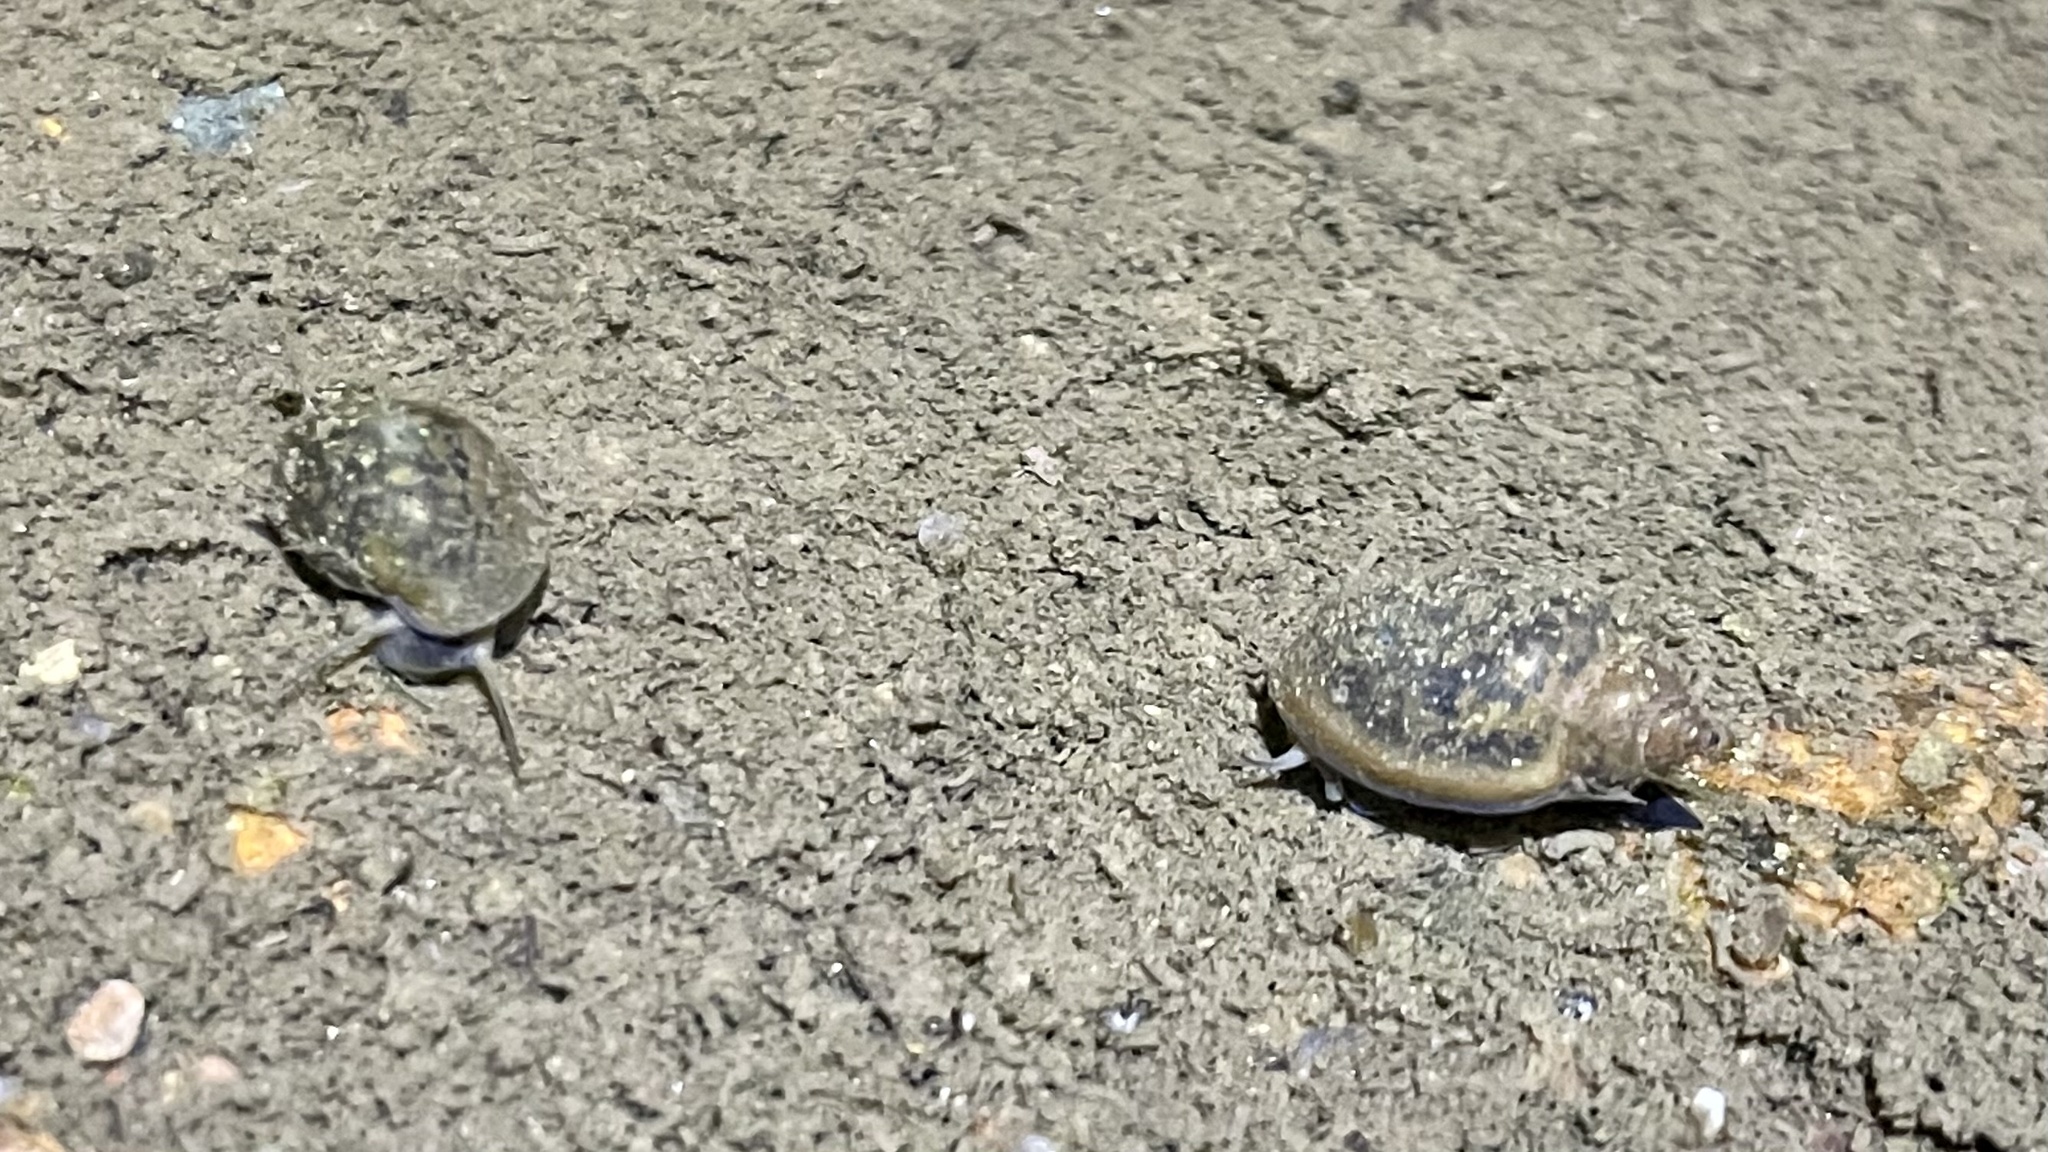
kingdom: Animalia
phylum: Mollusca
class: Gastropoda
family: Physidae
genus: Physella
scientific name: Physella acuta
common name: European physa
